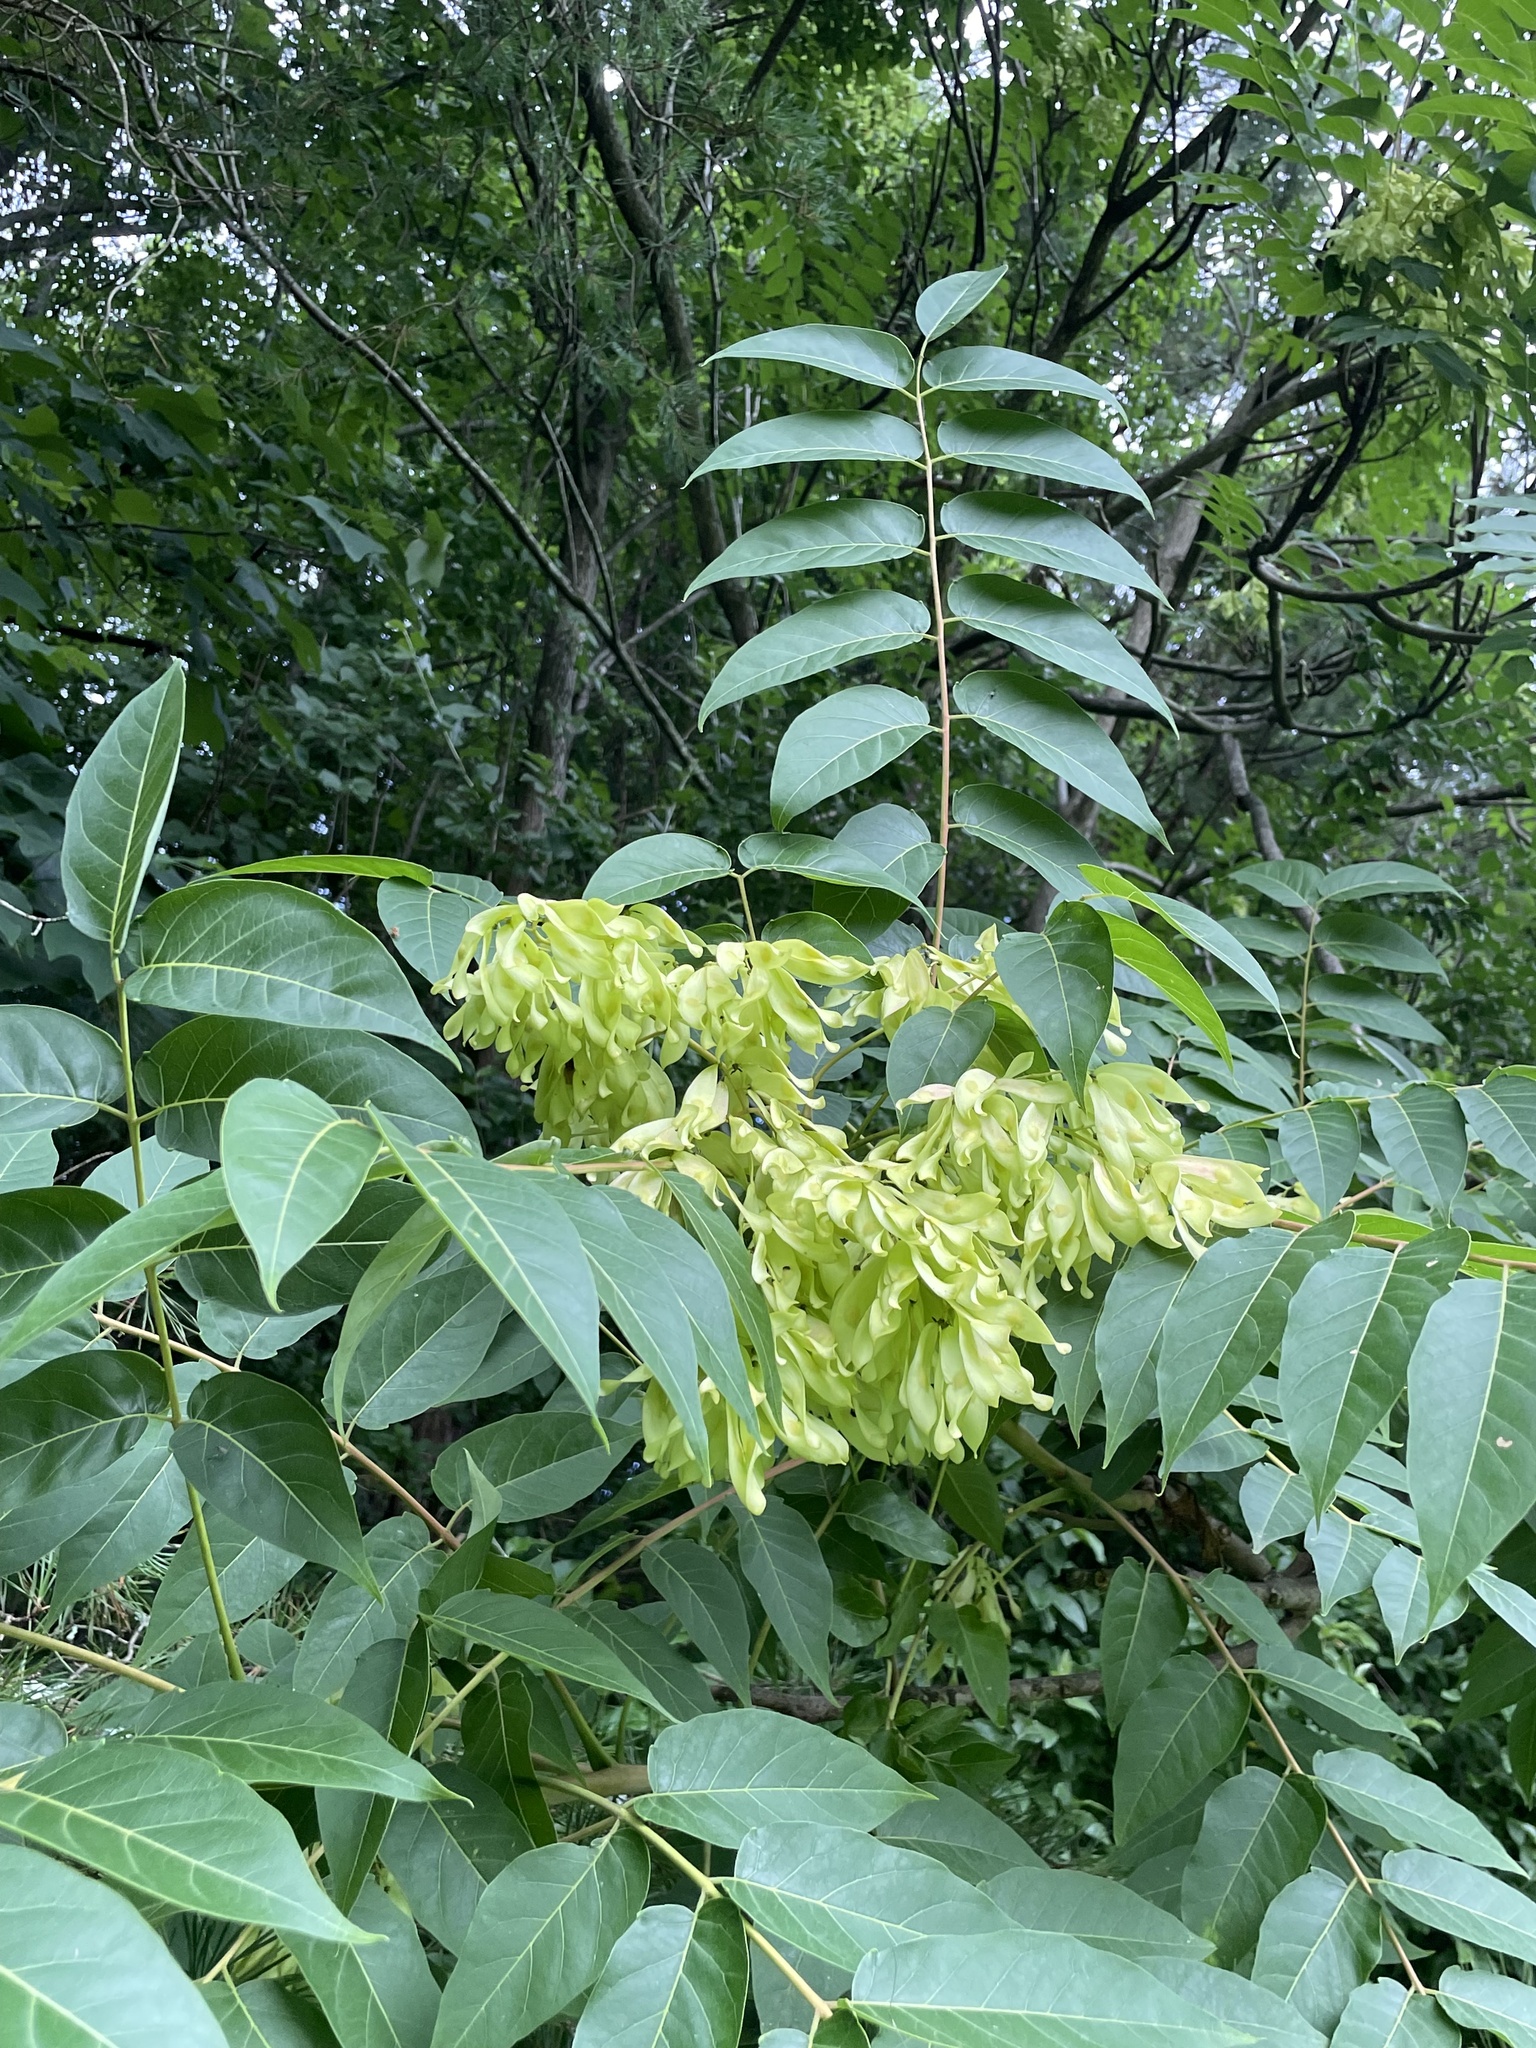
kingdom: Plantae
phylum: Tracheophyta
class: Magnoliopsida
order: Sapindales
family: Simaroubaceae
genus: Ailanthus
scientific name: Ailanthus altissima
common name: Tree-of-heaven
